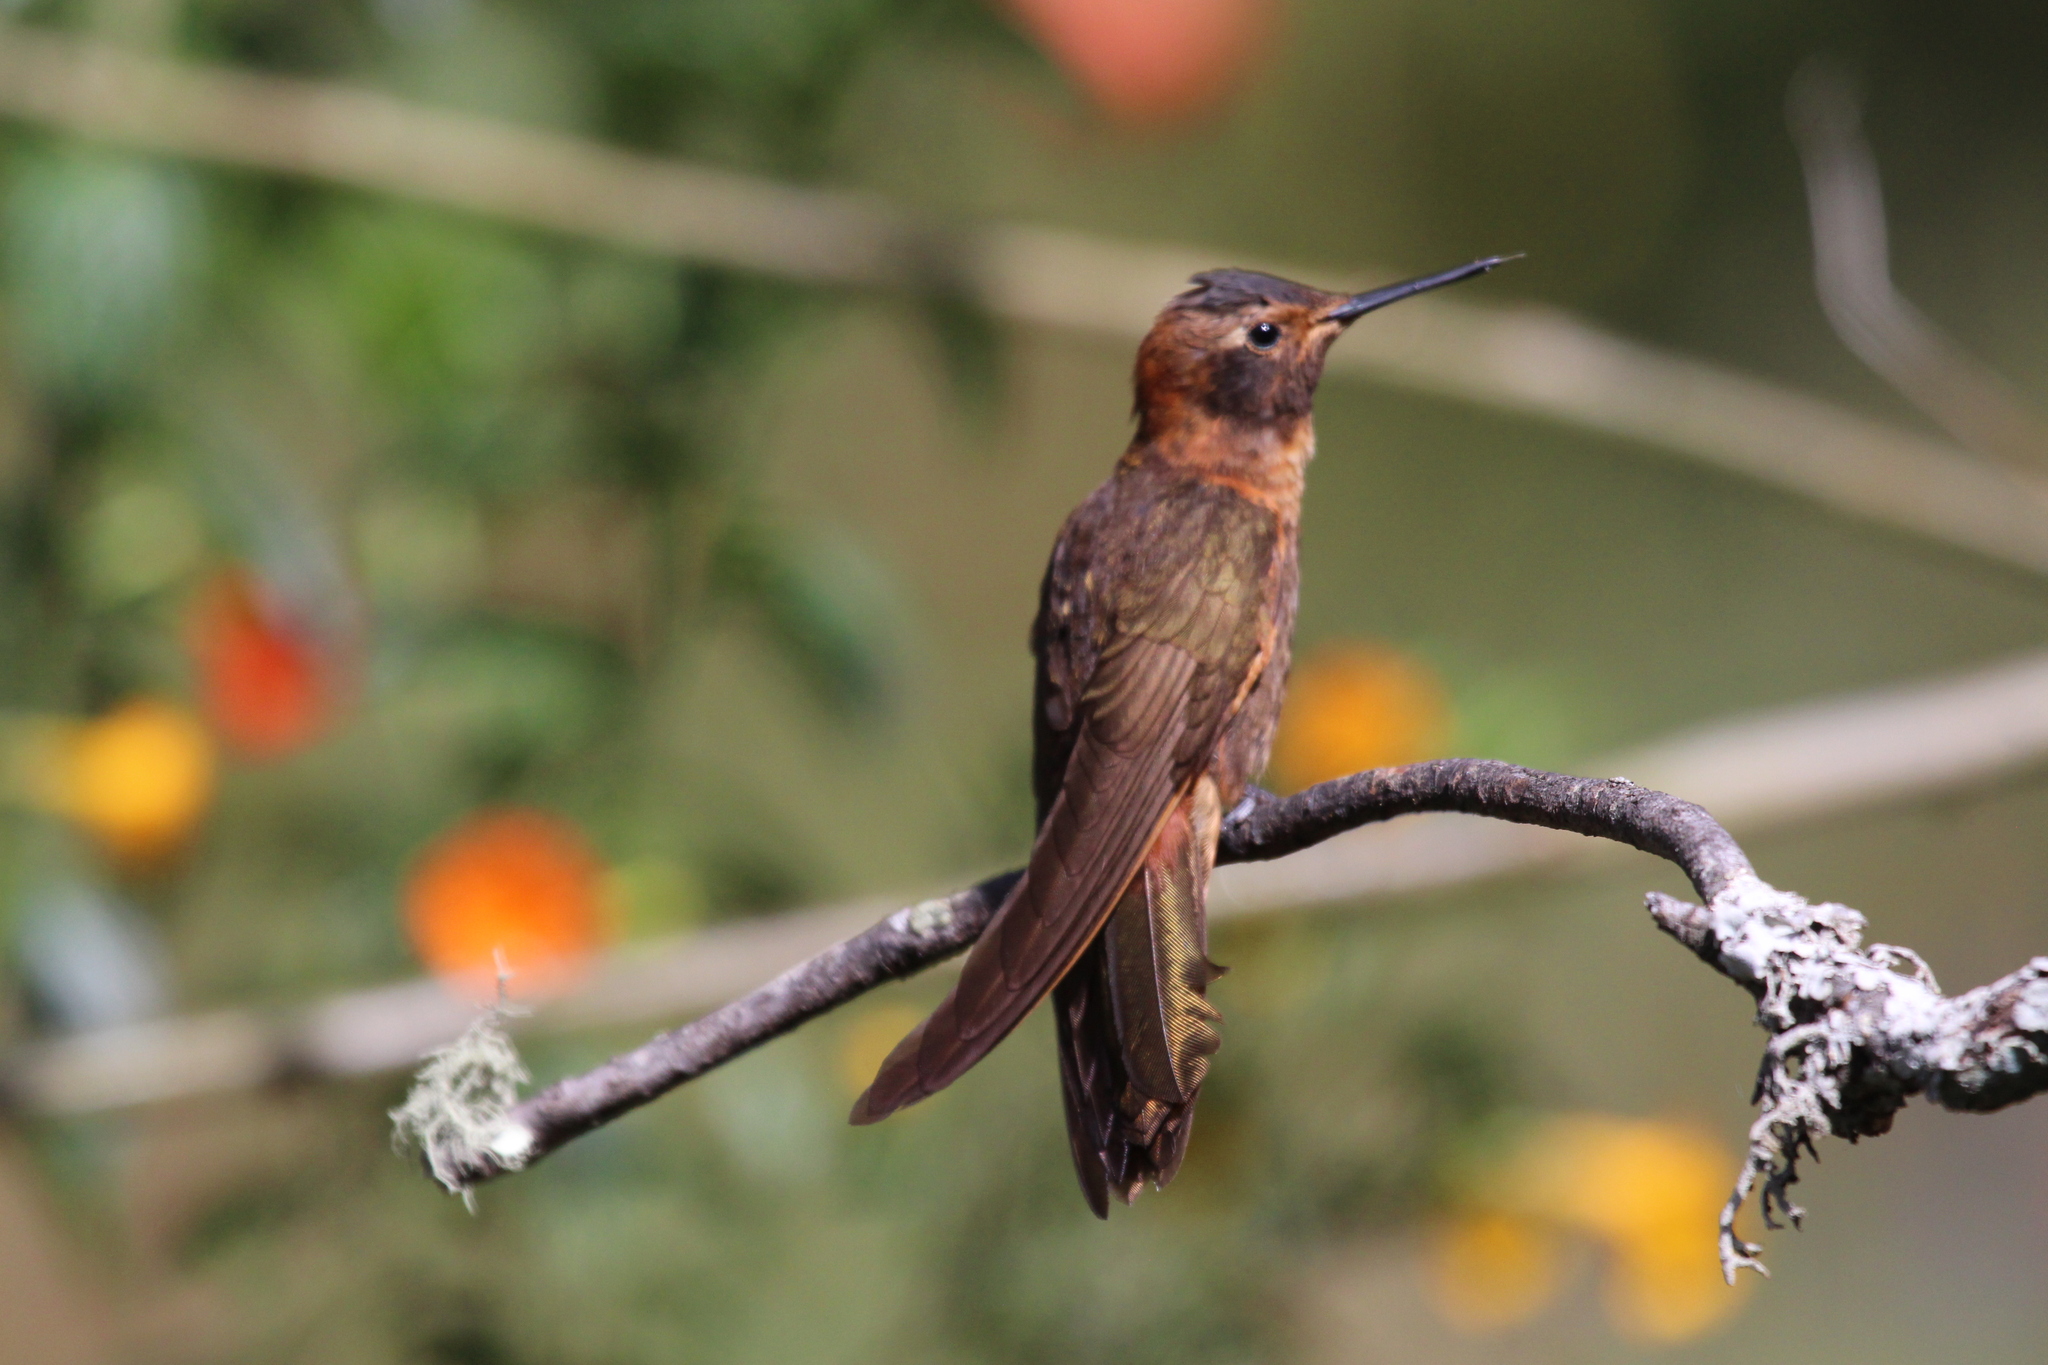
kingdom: Animalia
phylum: Chordata
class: Aves
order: Apodiformes
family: Trochilidae
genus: Aglaeactis
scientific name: Aglaeactis cupripennis
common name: Shining sunbeam
